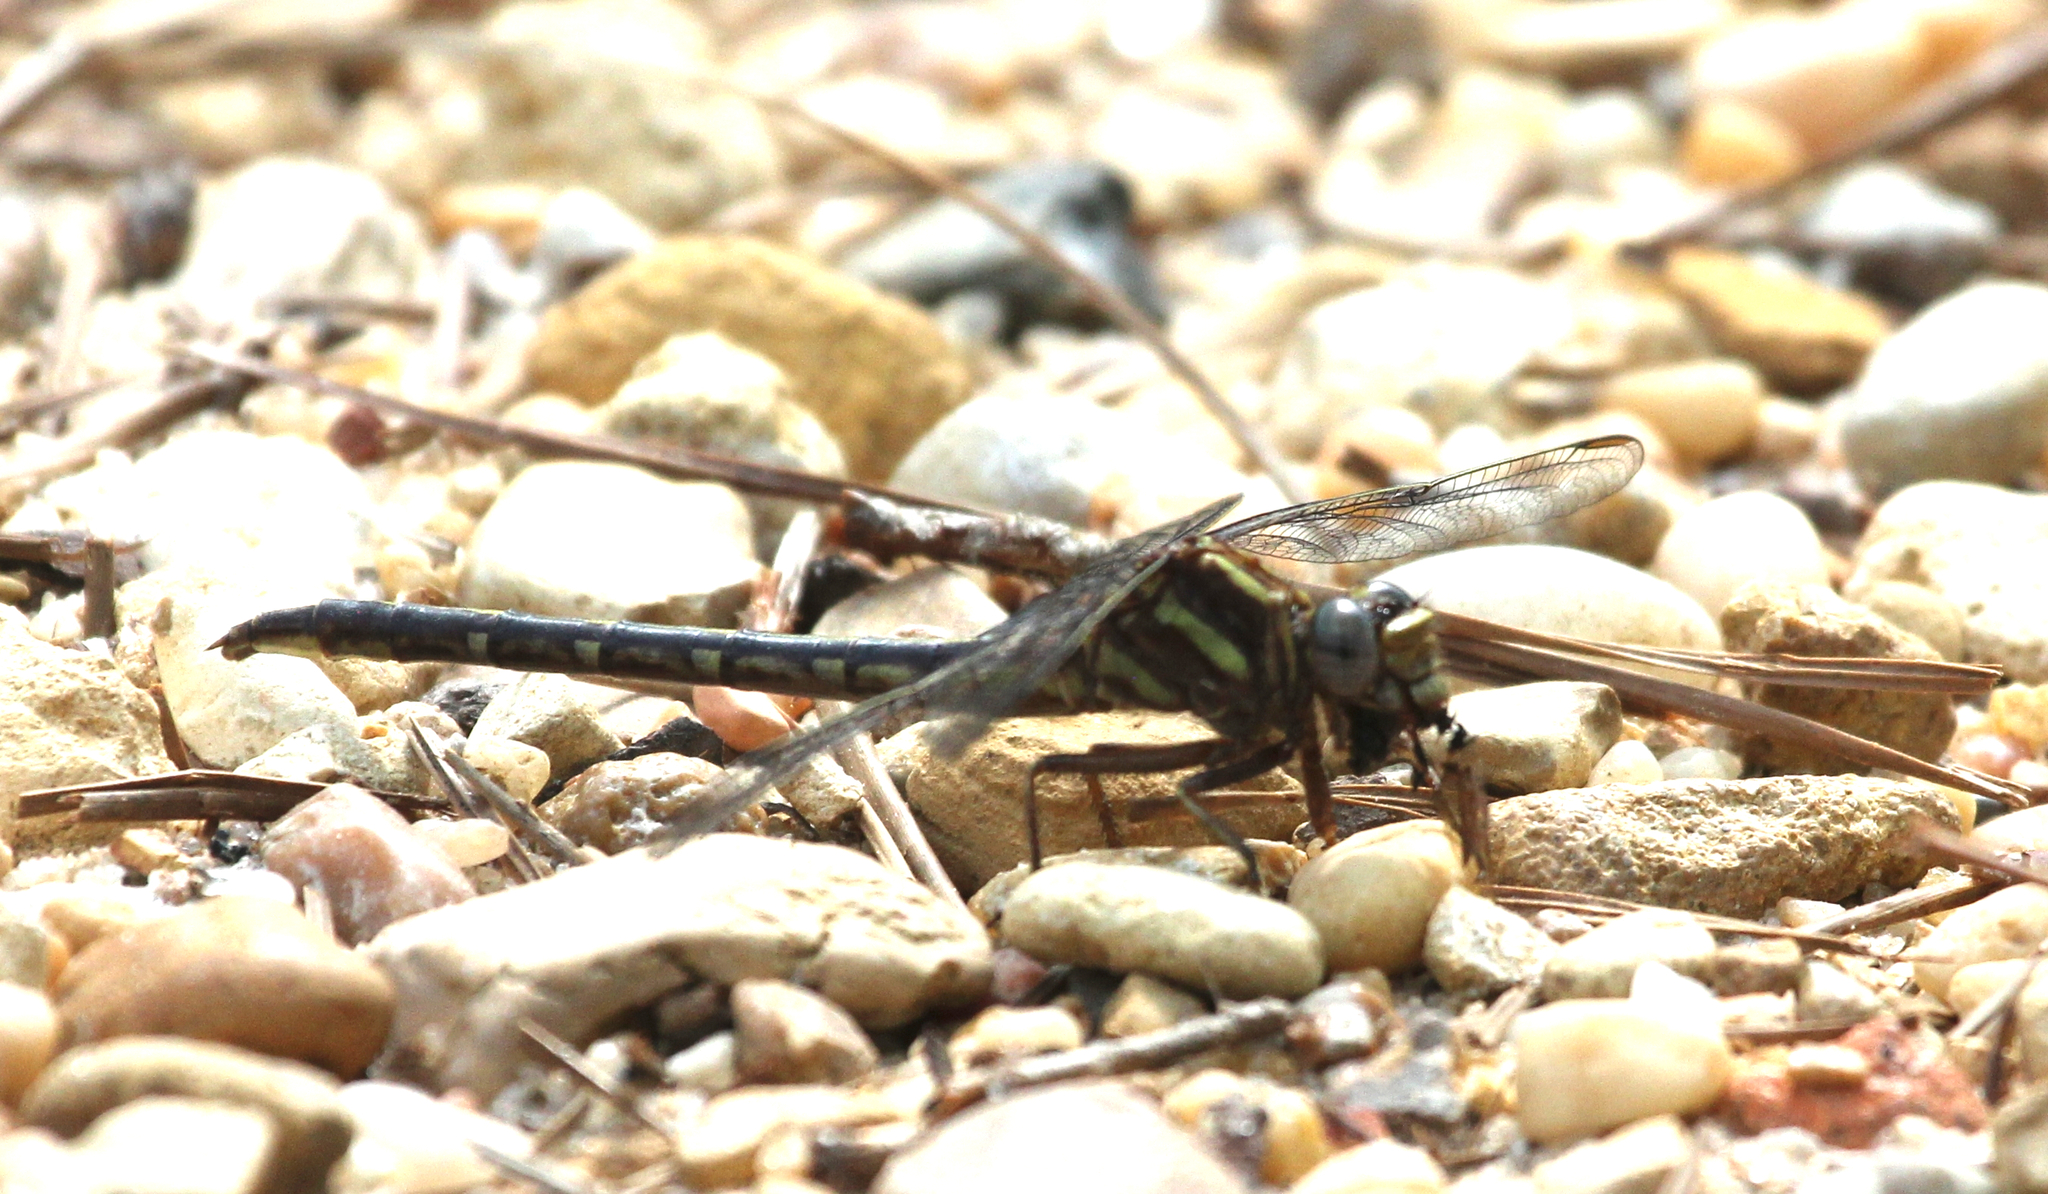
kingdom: Animalia
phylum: Arthropoda
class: Insecta
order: Odonata
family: Gomphidae
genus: Phanogomphus
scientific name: Phanogomphus lividus
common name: Ashy clubtail
